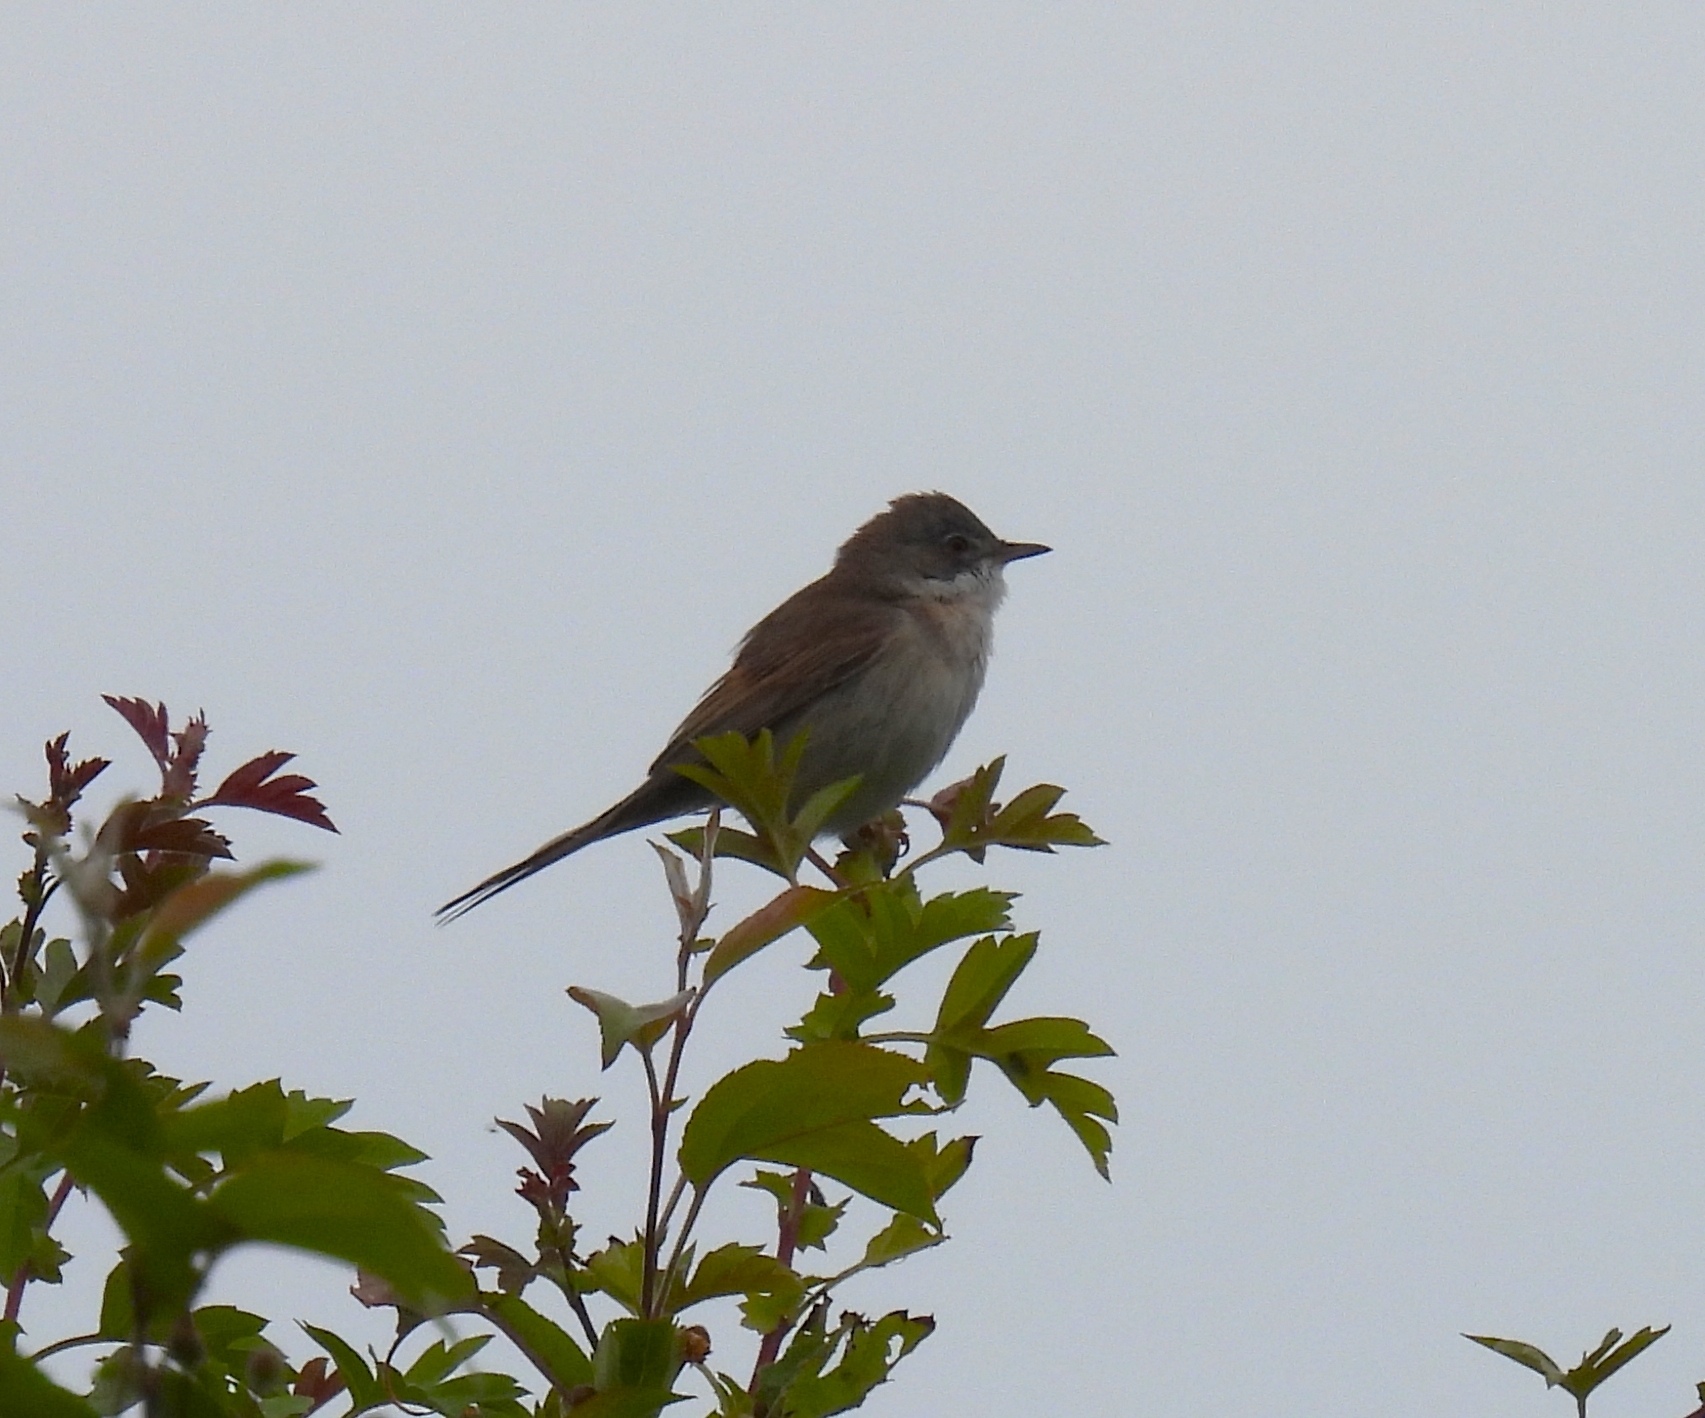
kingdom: Animalia
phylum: Chordata
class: Aves
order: Passeriformes
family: Sylviidae
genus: Sylvia
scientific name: Sylvia communis
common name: Common whitethroat
